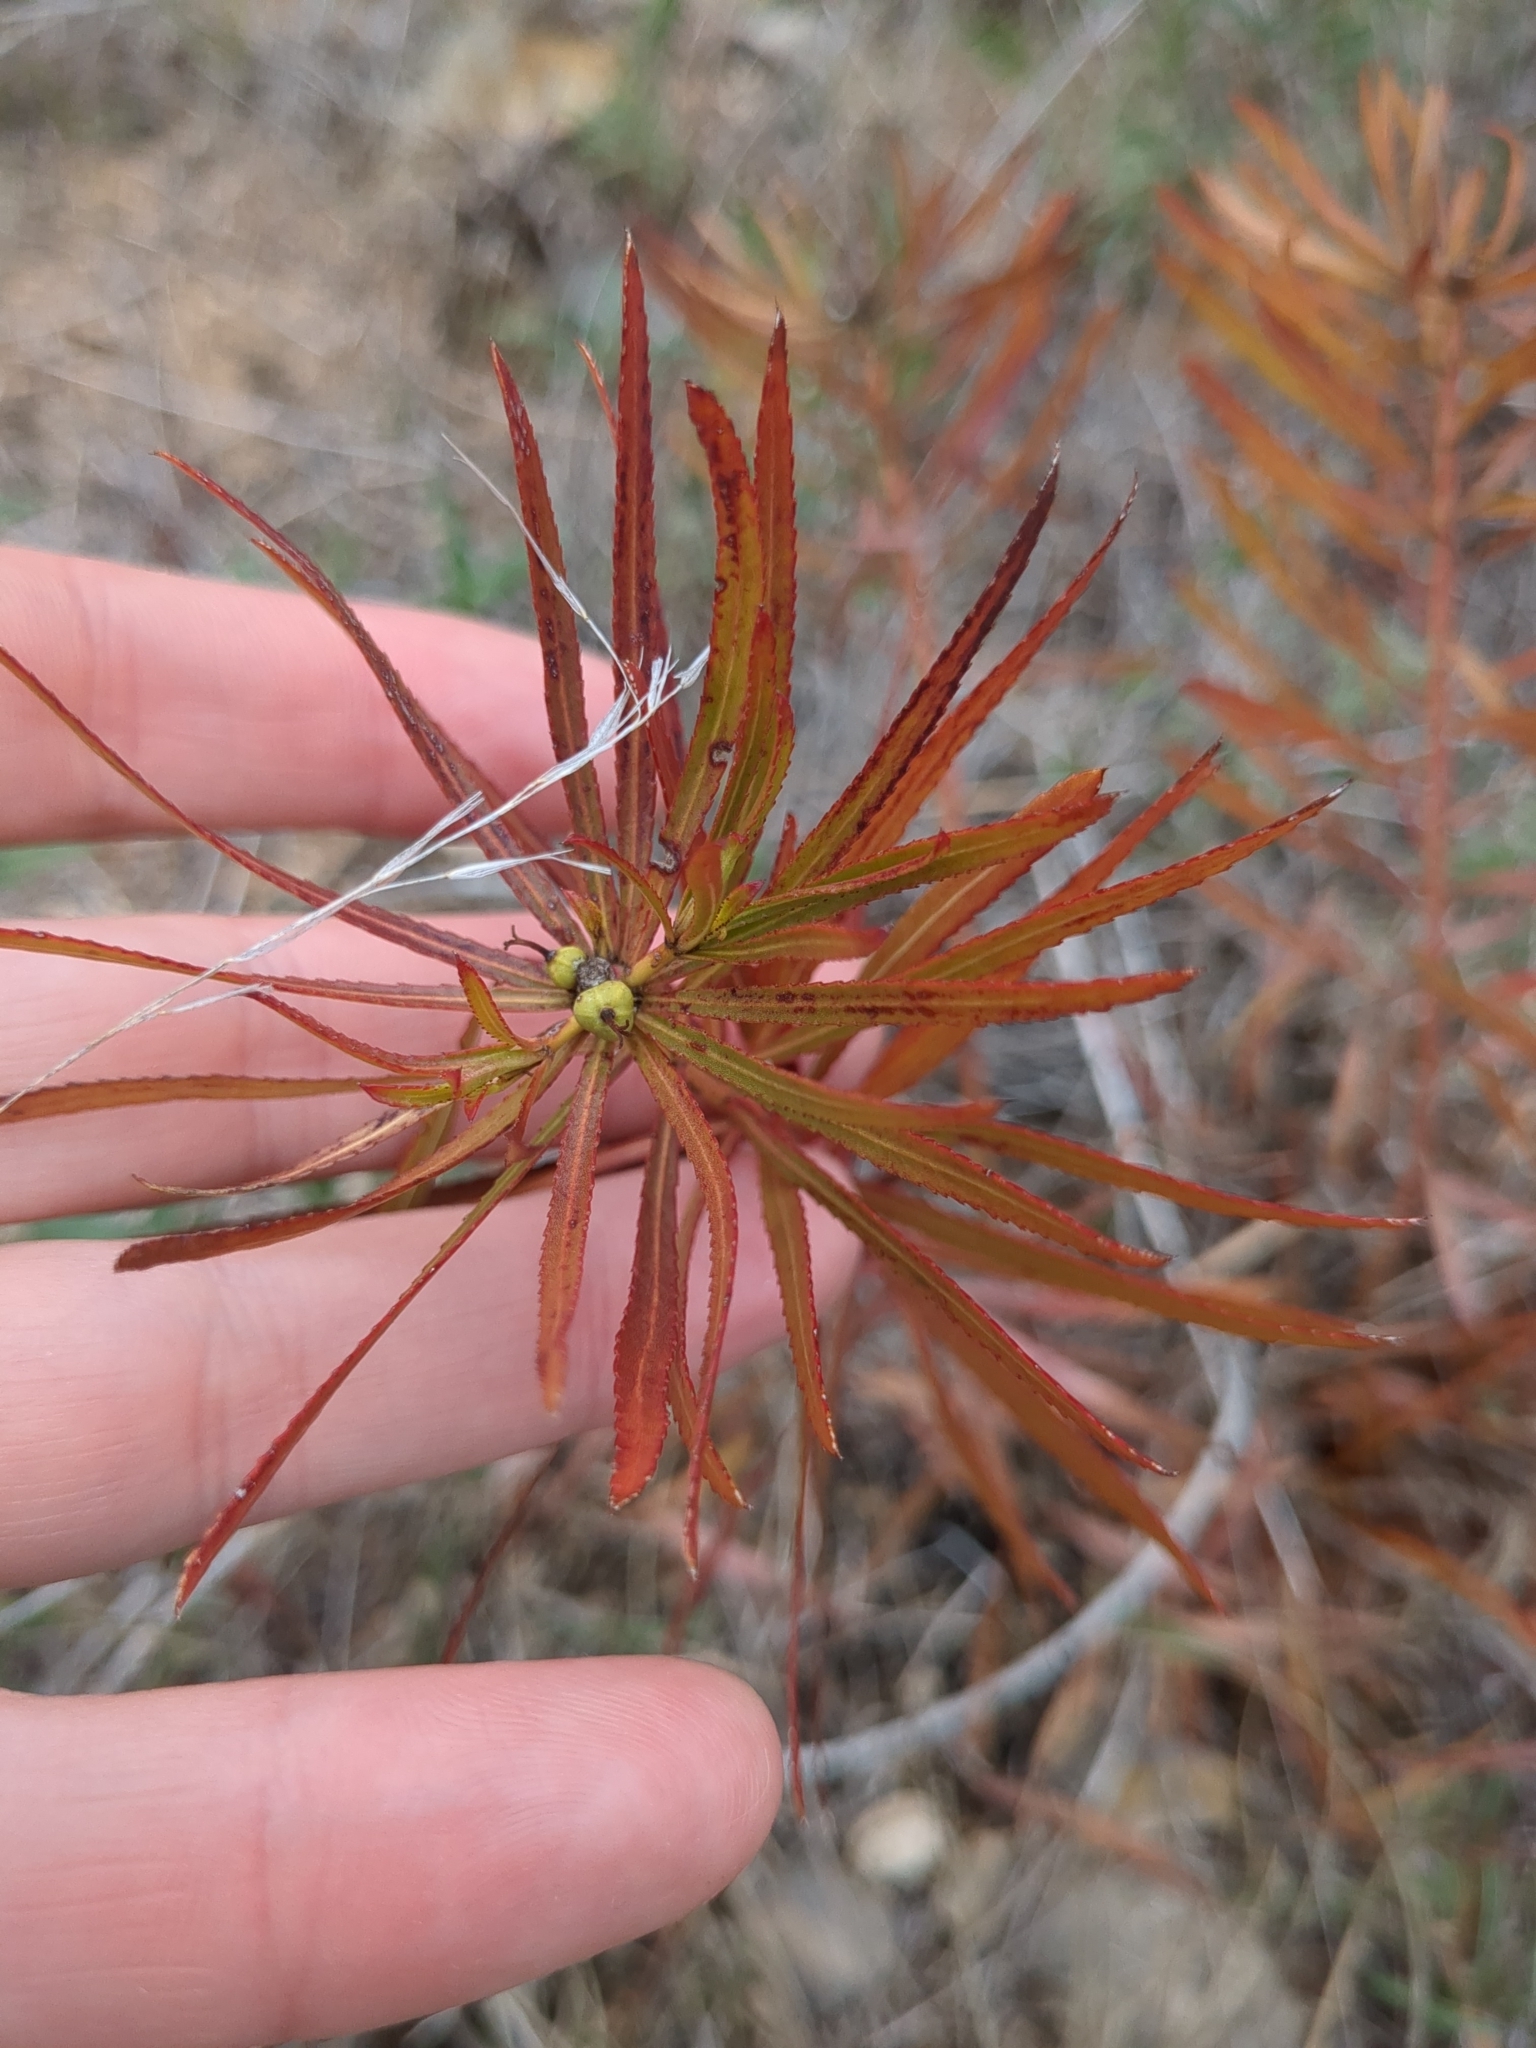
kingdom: Plantae
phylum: Tracheophyta
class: Magnoliopsida
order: Malpighiales
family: Euphorbiaceae
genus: Stillingia
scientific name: Stillingia texana
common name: Texas stillingia
